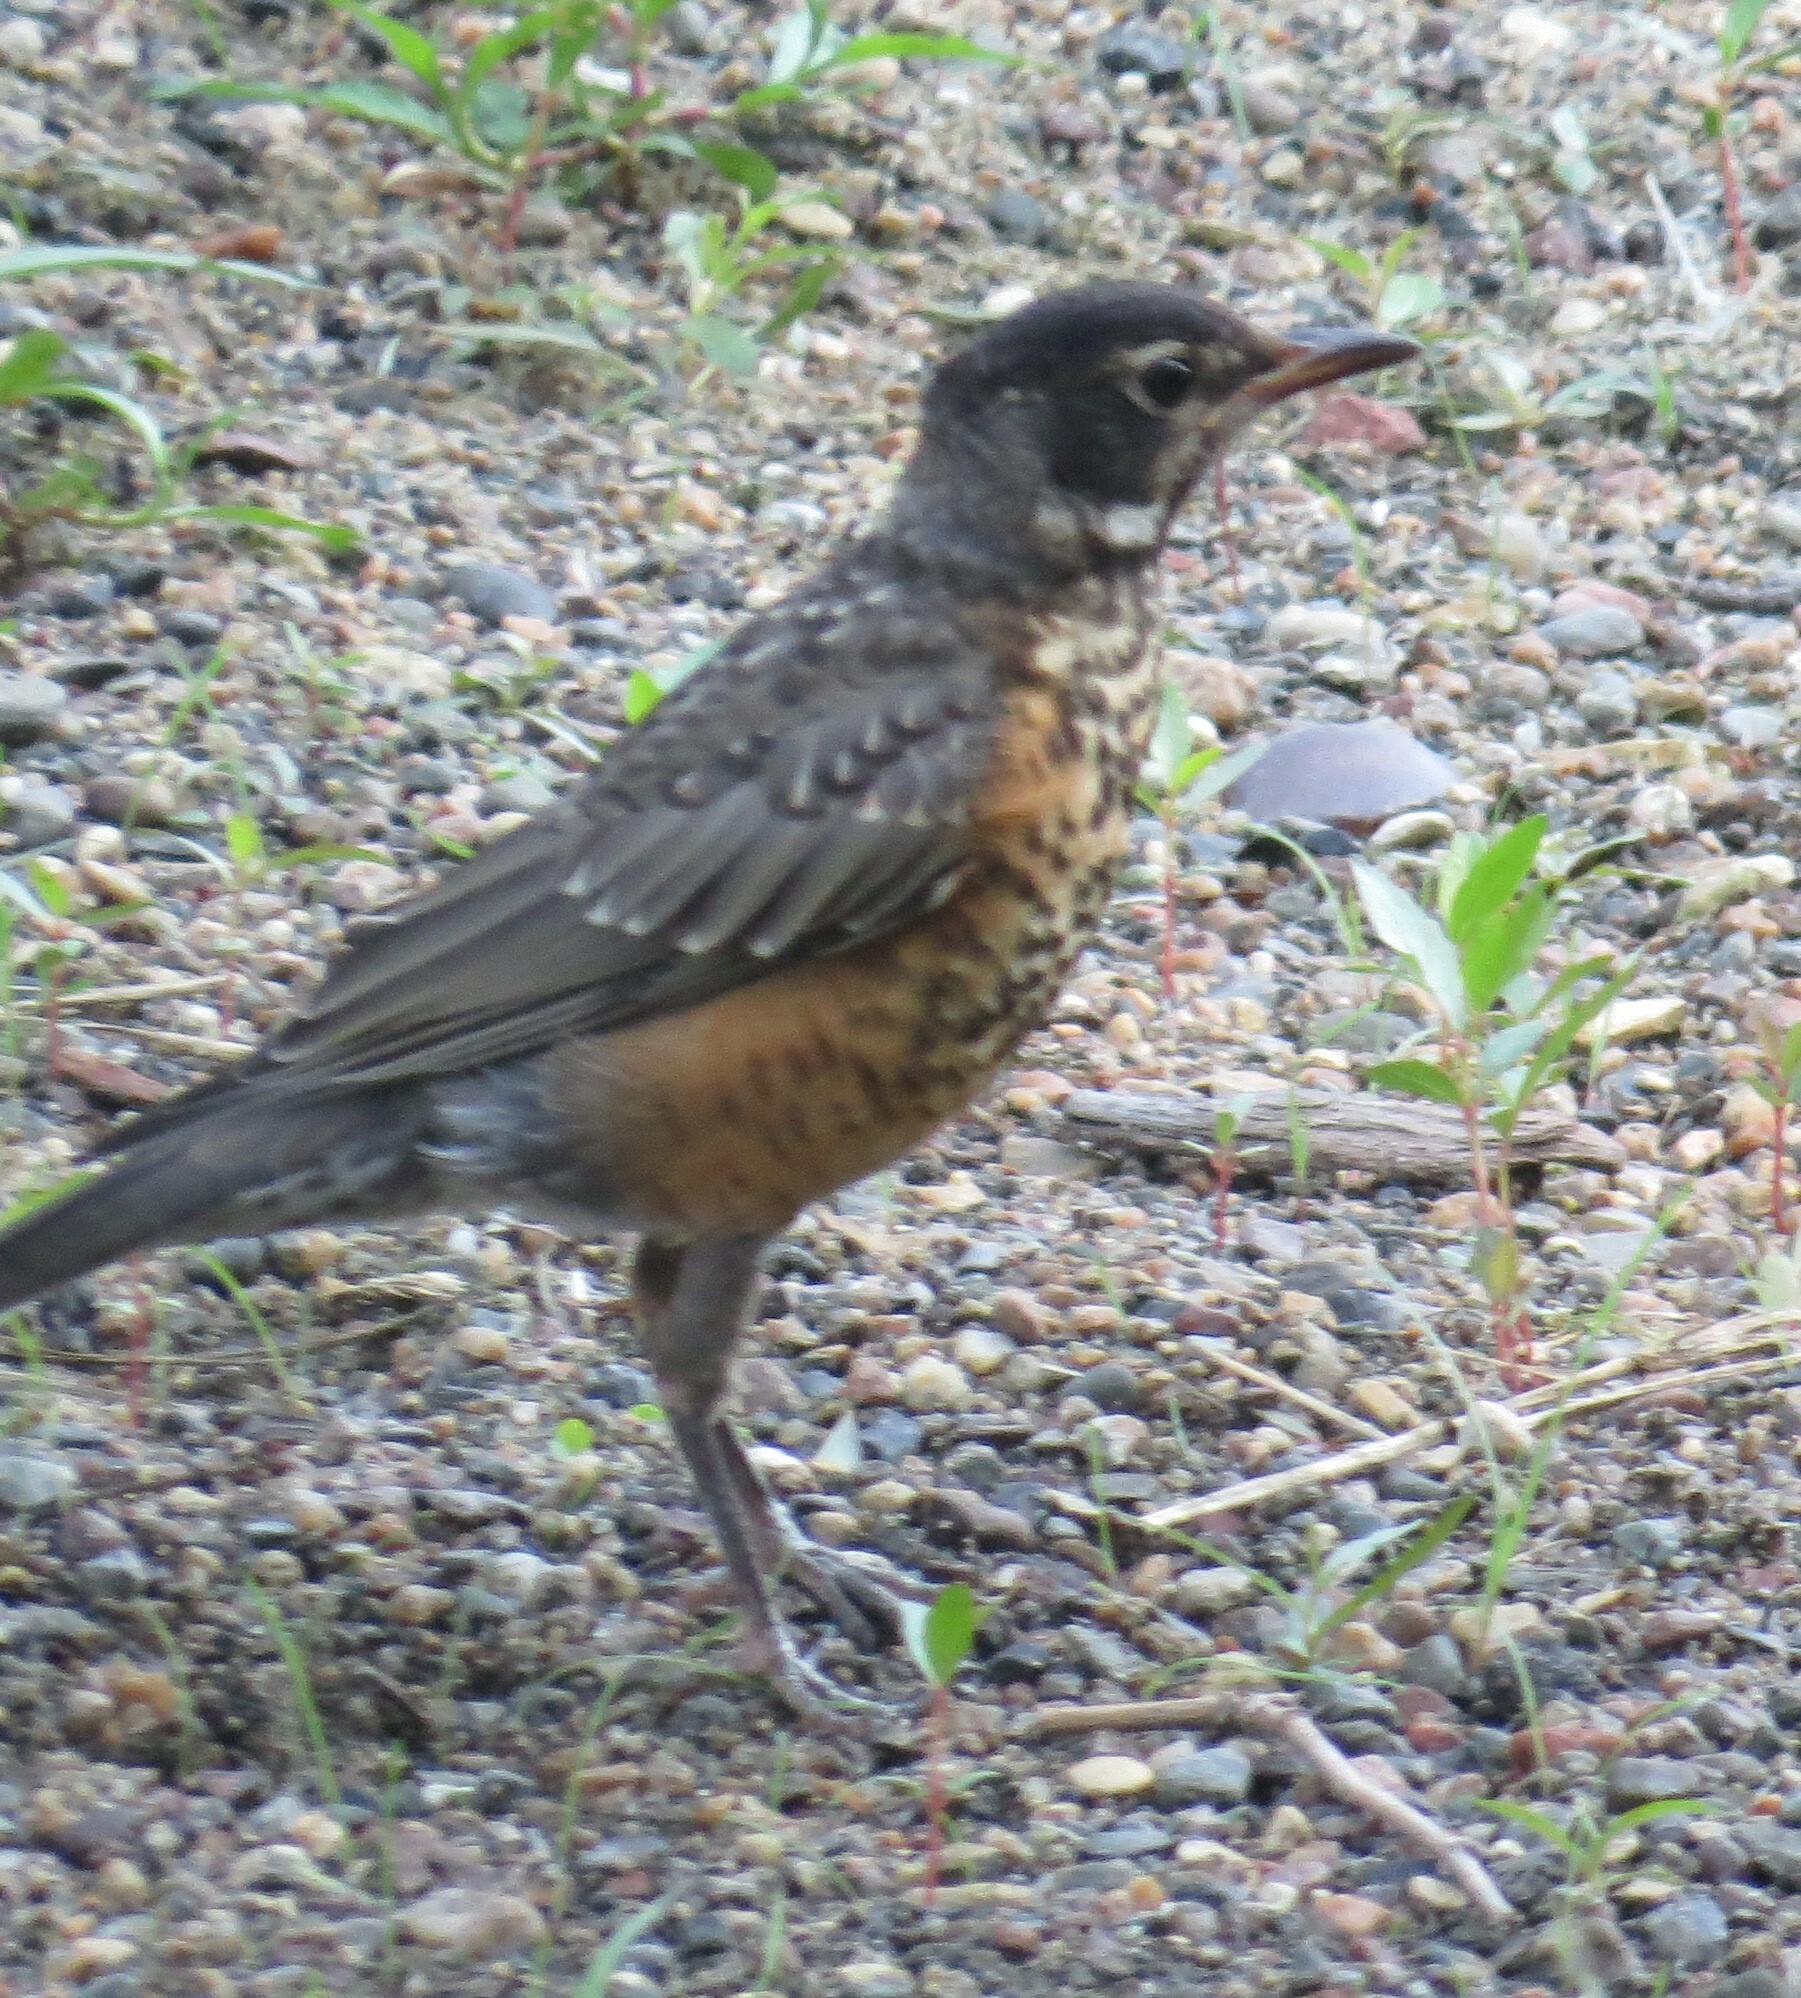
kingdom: Animalia
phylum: Chordata
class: Aves
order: Passeriformes
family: Turdidae
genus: Turdus
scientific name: Turdus migratorius
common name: American robin
